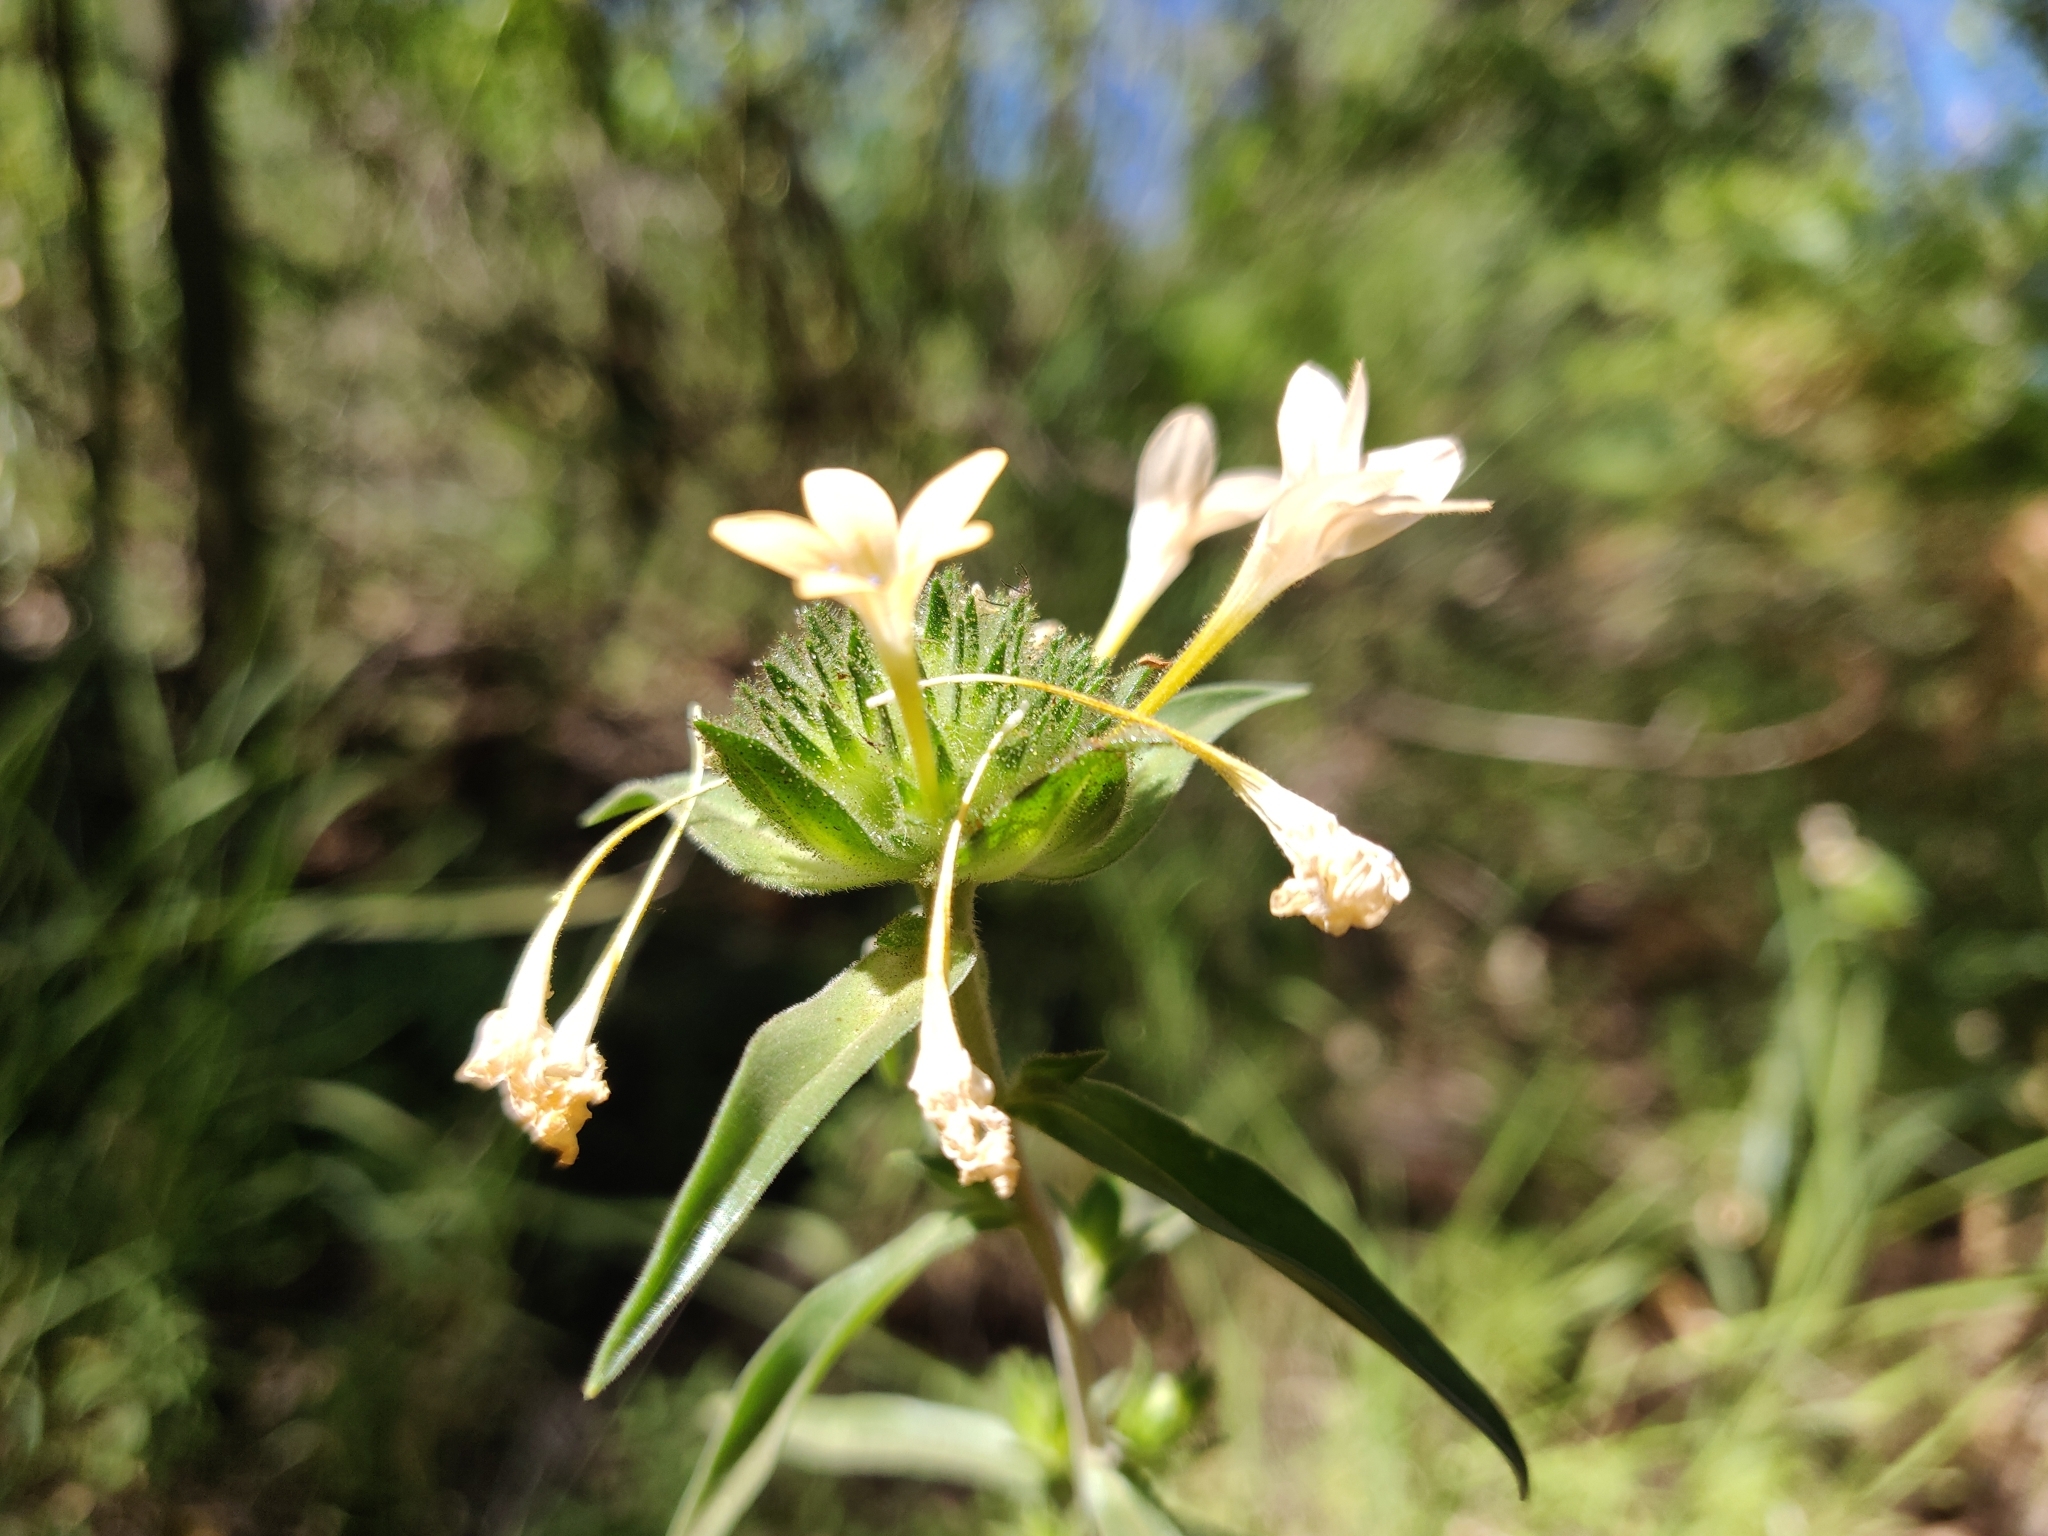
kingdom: Plantae
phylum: Tracheophyta
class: Magnoliopsida
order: Ericales
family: Polemoniaceae
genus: Collomia
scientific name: Collomia grandiflora
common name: California strawflower
